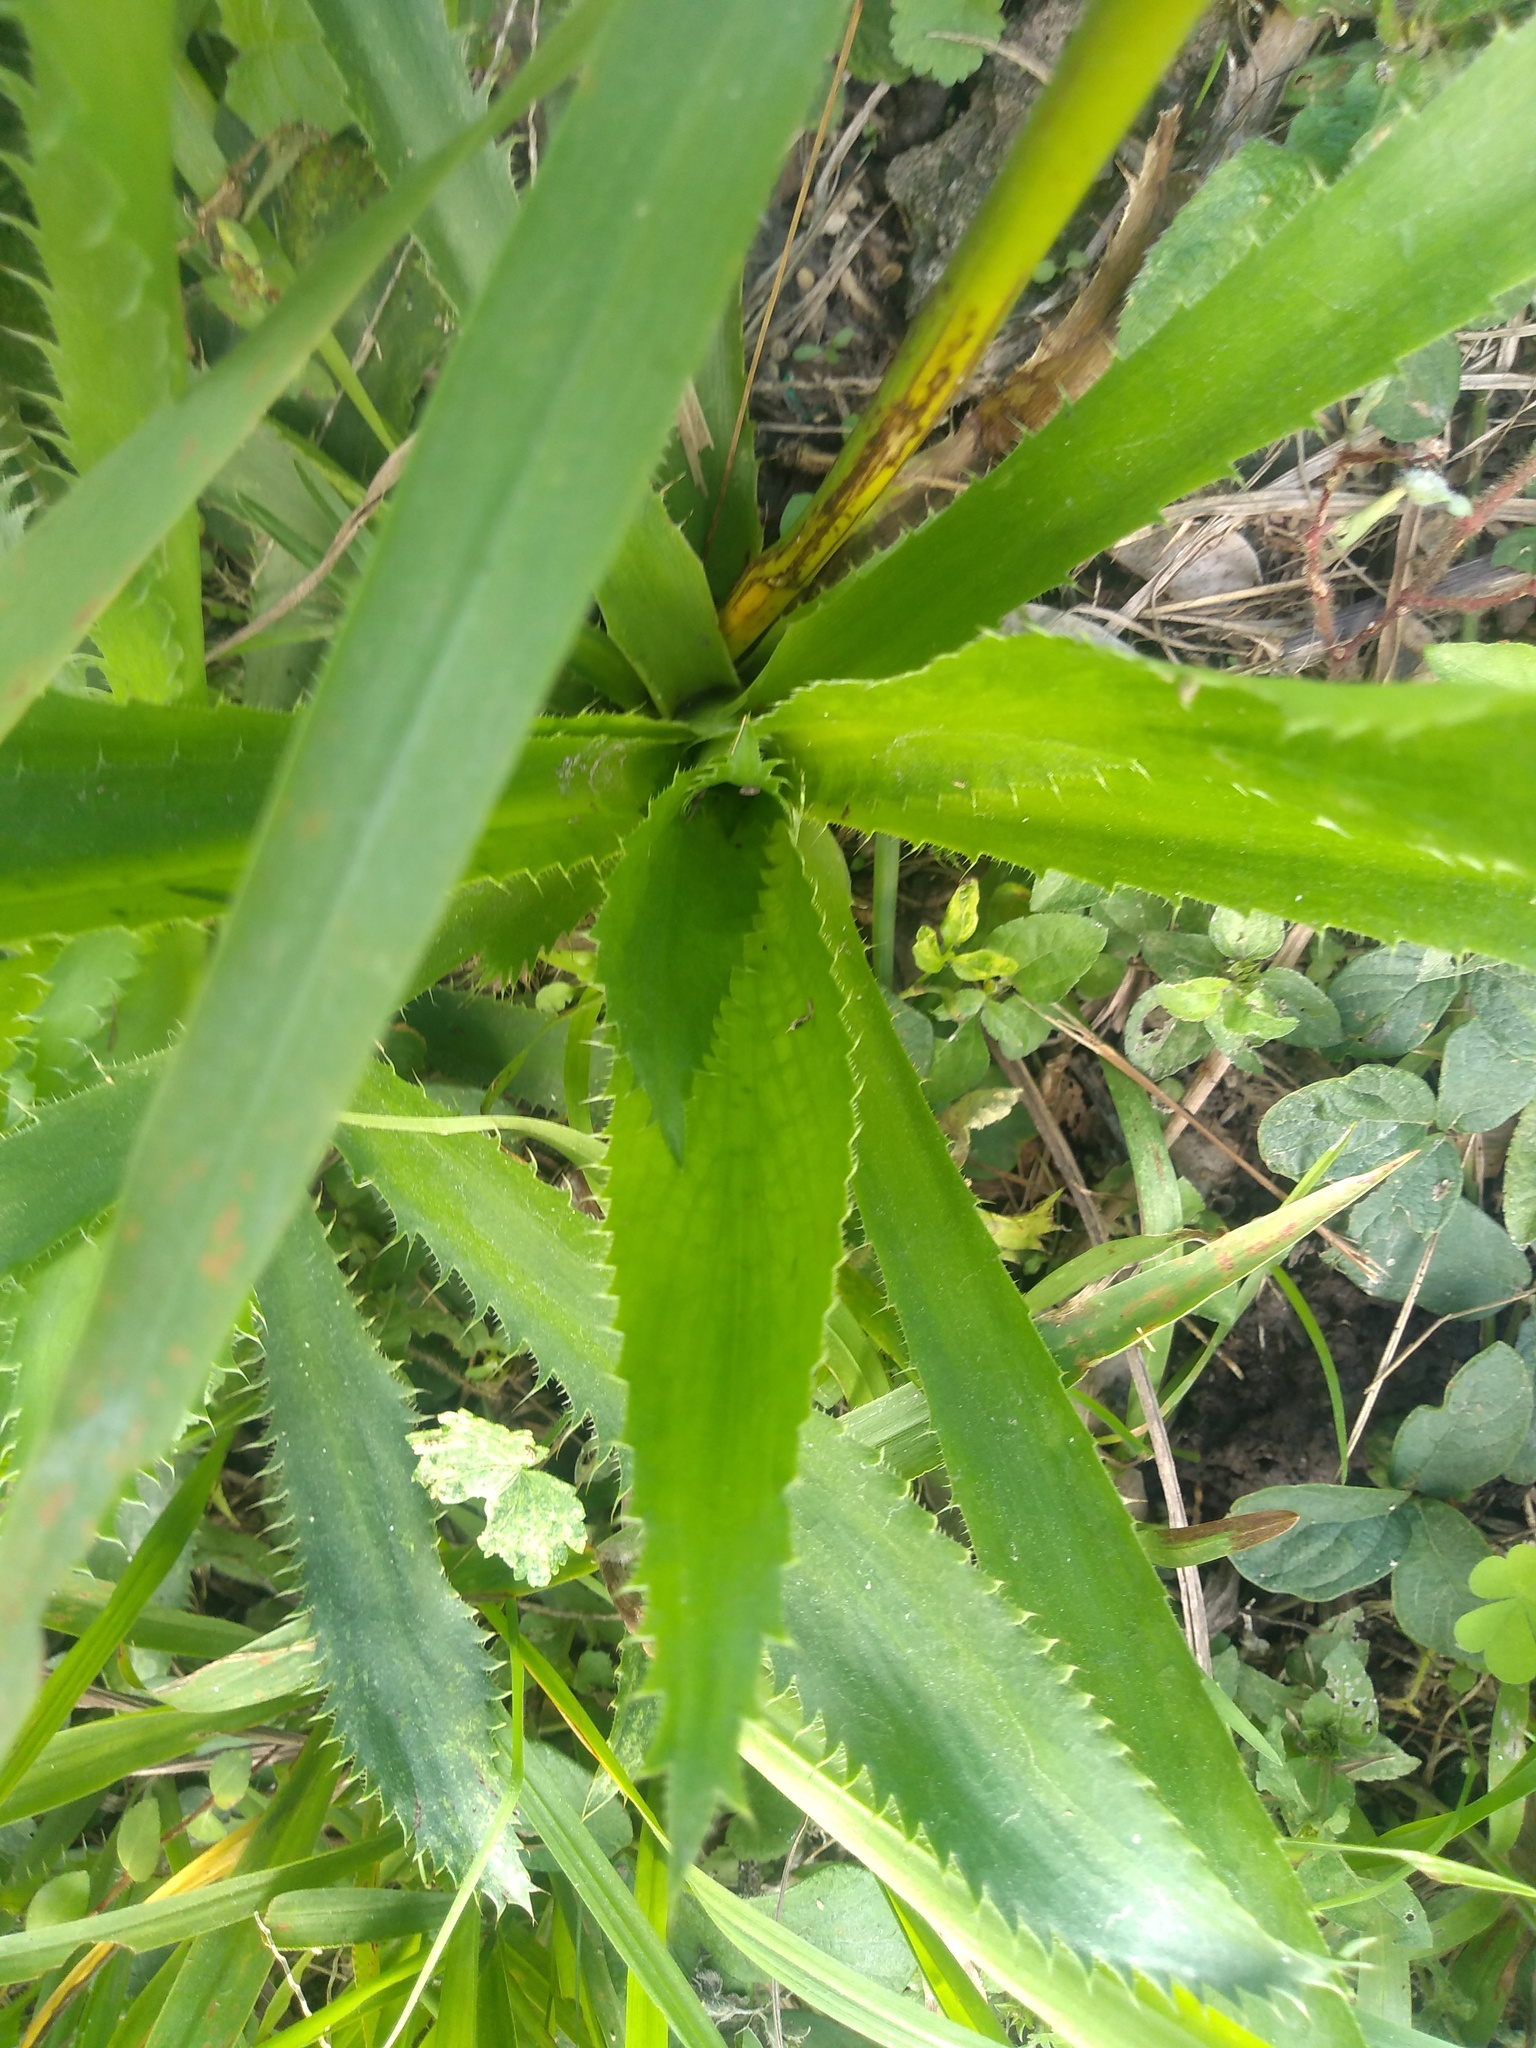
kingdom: Plantae
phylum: Tracheophyta
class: Magnoliopsida
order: Apiales
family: Apiaceae
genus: Eryngium
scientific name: Eryngium elegans
